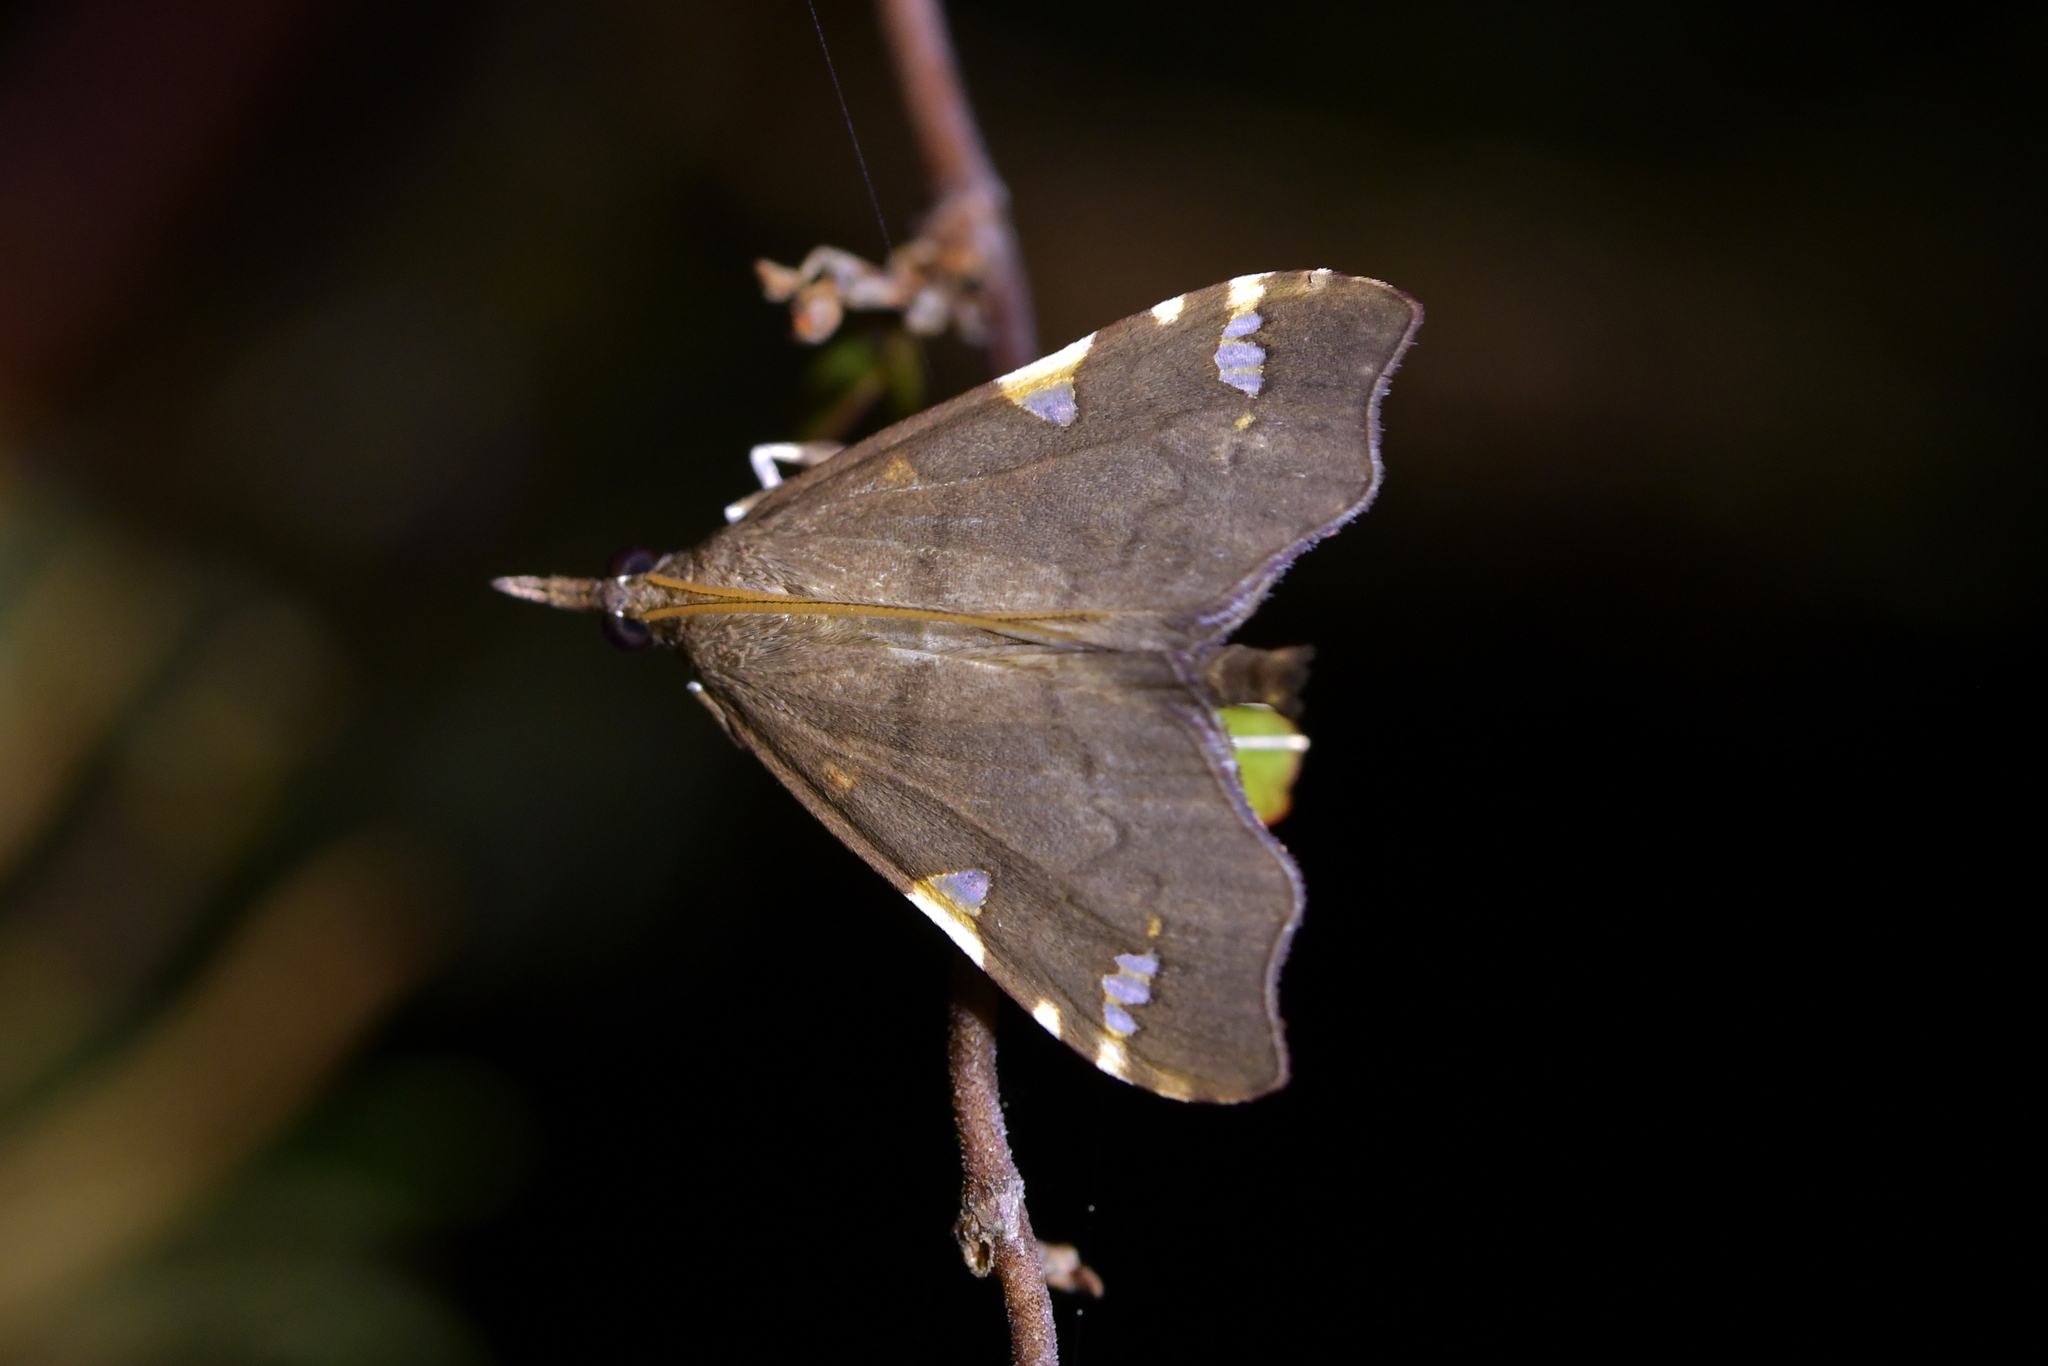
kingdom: Animalia
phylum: Arthropoda
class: Insecta
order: Lepidoptera
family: Crambidae
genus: Deana
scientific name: Deana hybreasalis
